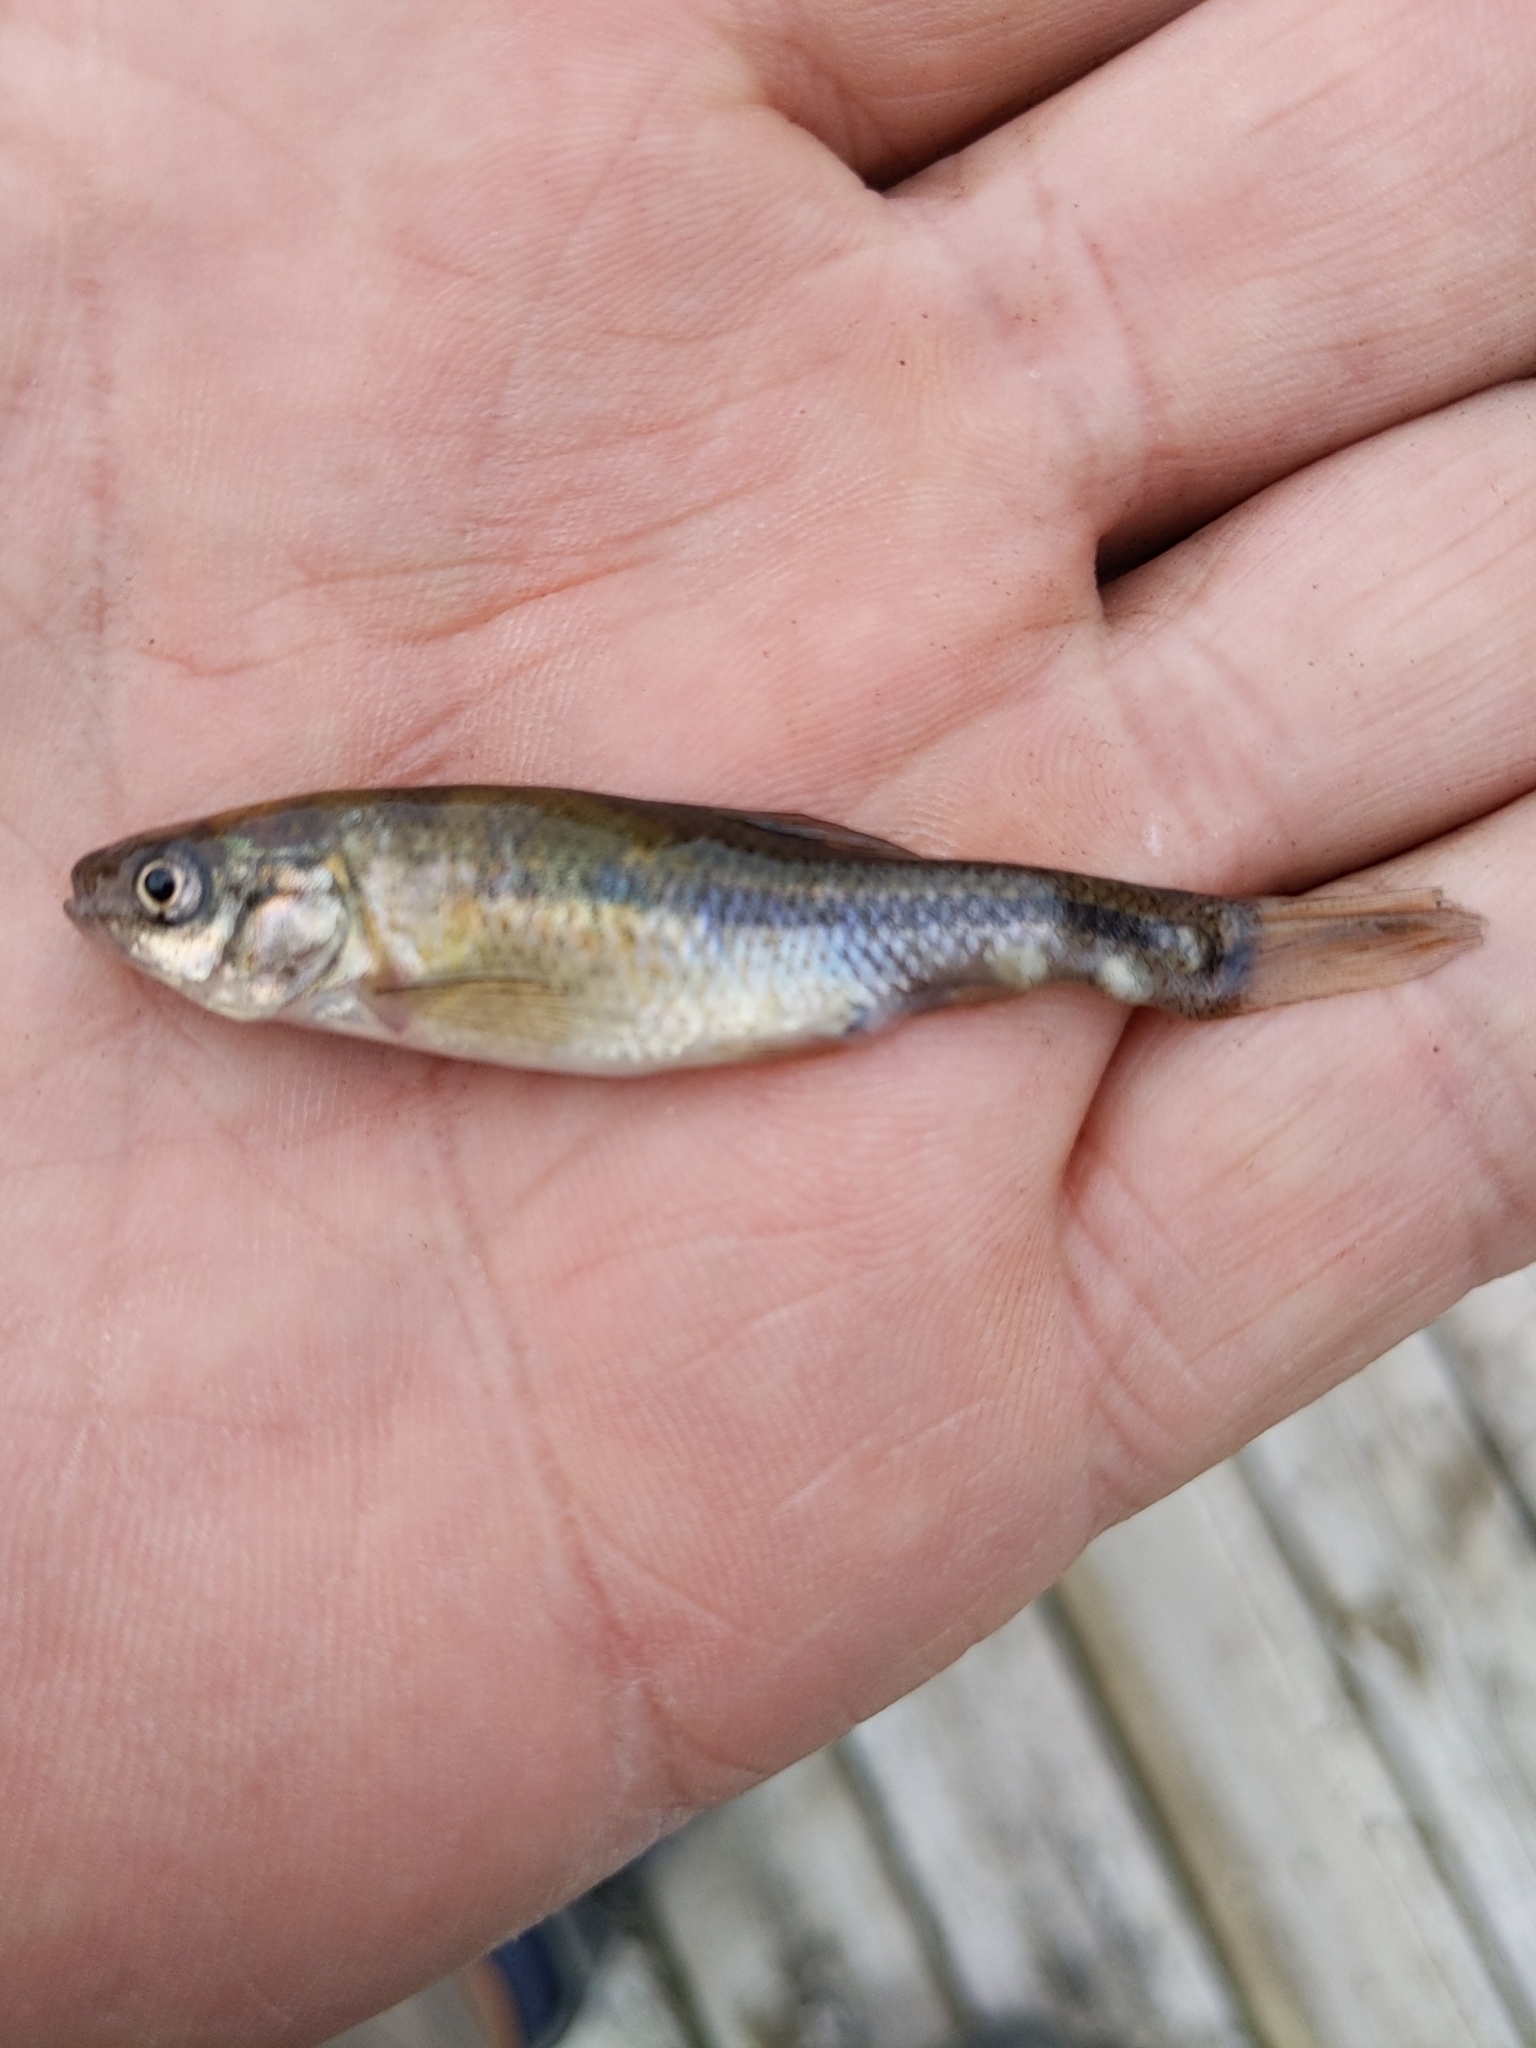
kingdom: Animalia
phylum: Chordata
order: Cypriniformes
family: Cyprinidae
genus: Pimephales
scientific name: Pimephales promelas
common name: Fathead minnow
